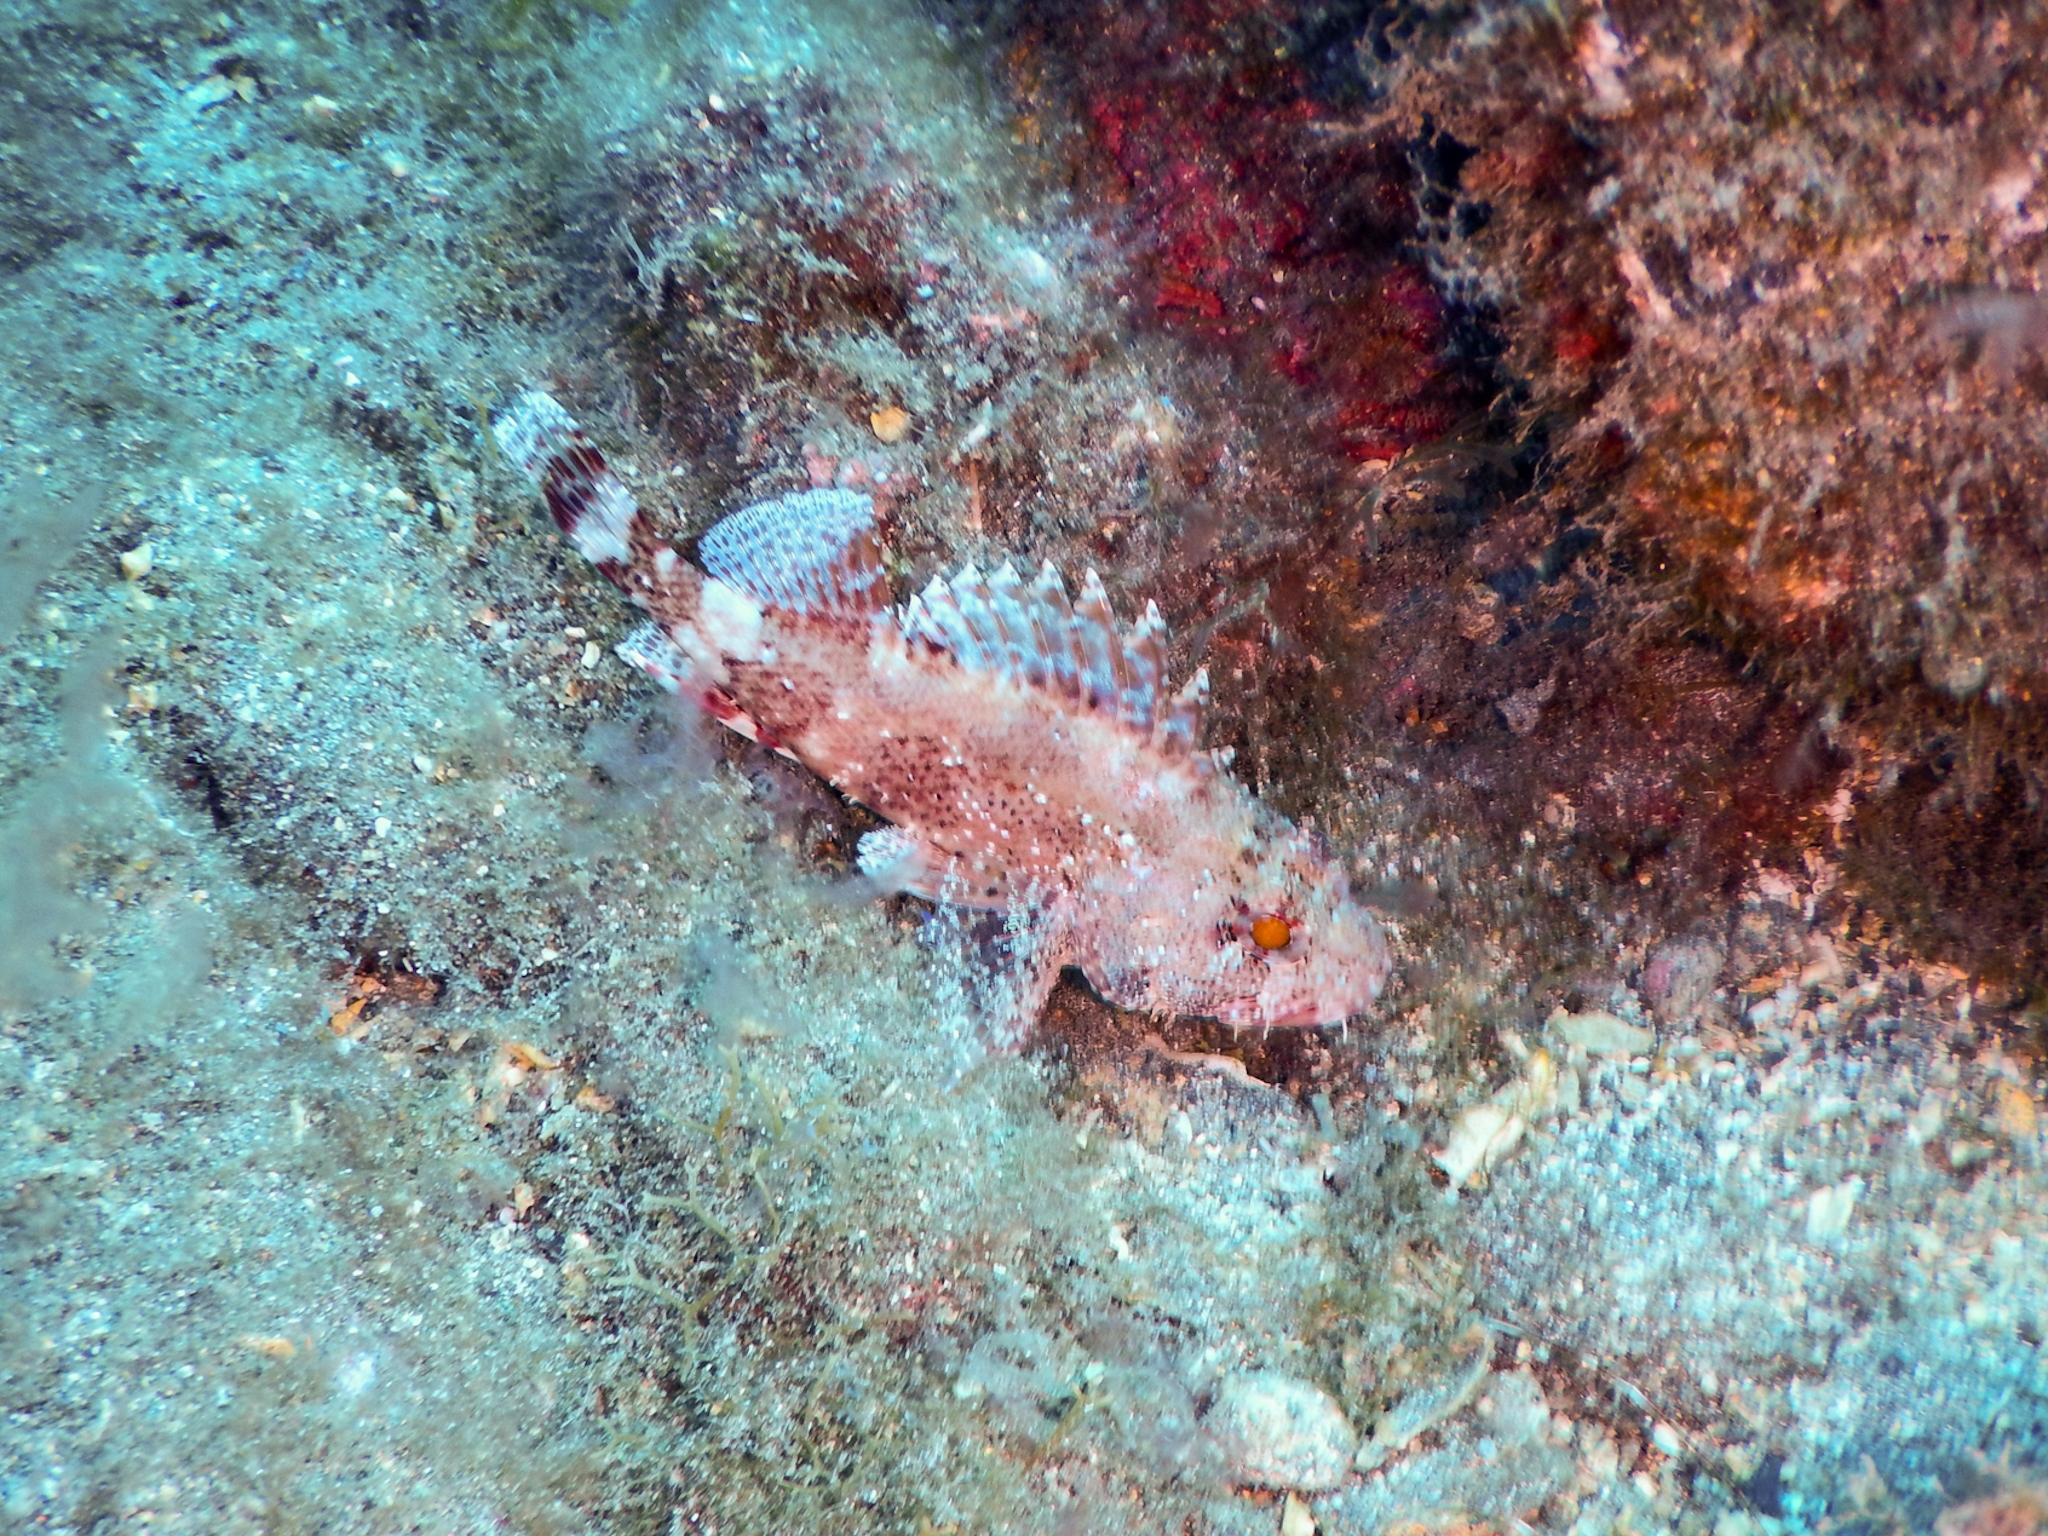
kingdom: Animalia
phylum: Chordata
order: Scorpaeniformes
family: Scorpaenidae
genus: Scorpaena
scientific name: Scorpaena maderensis
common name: Madeira rockfish
